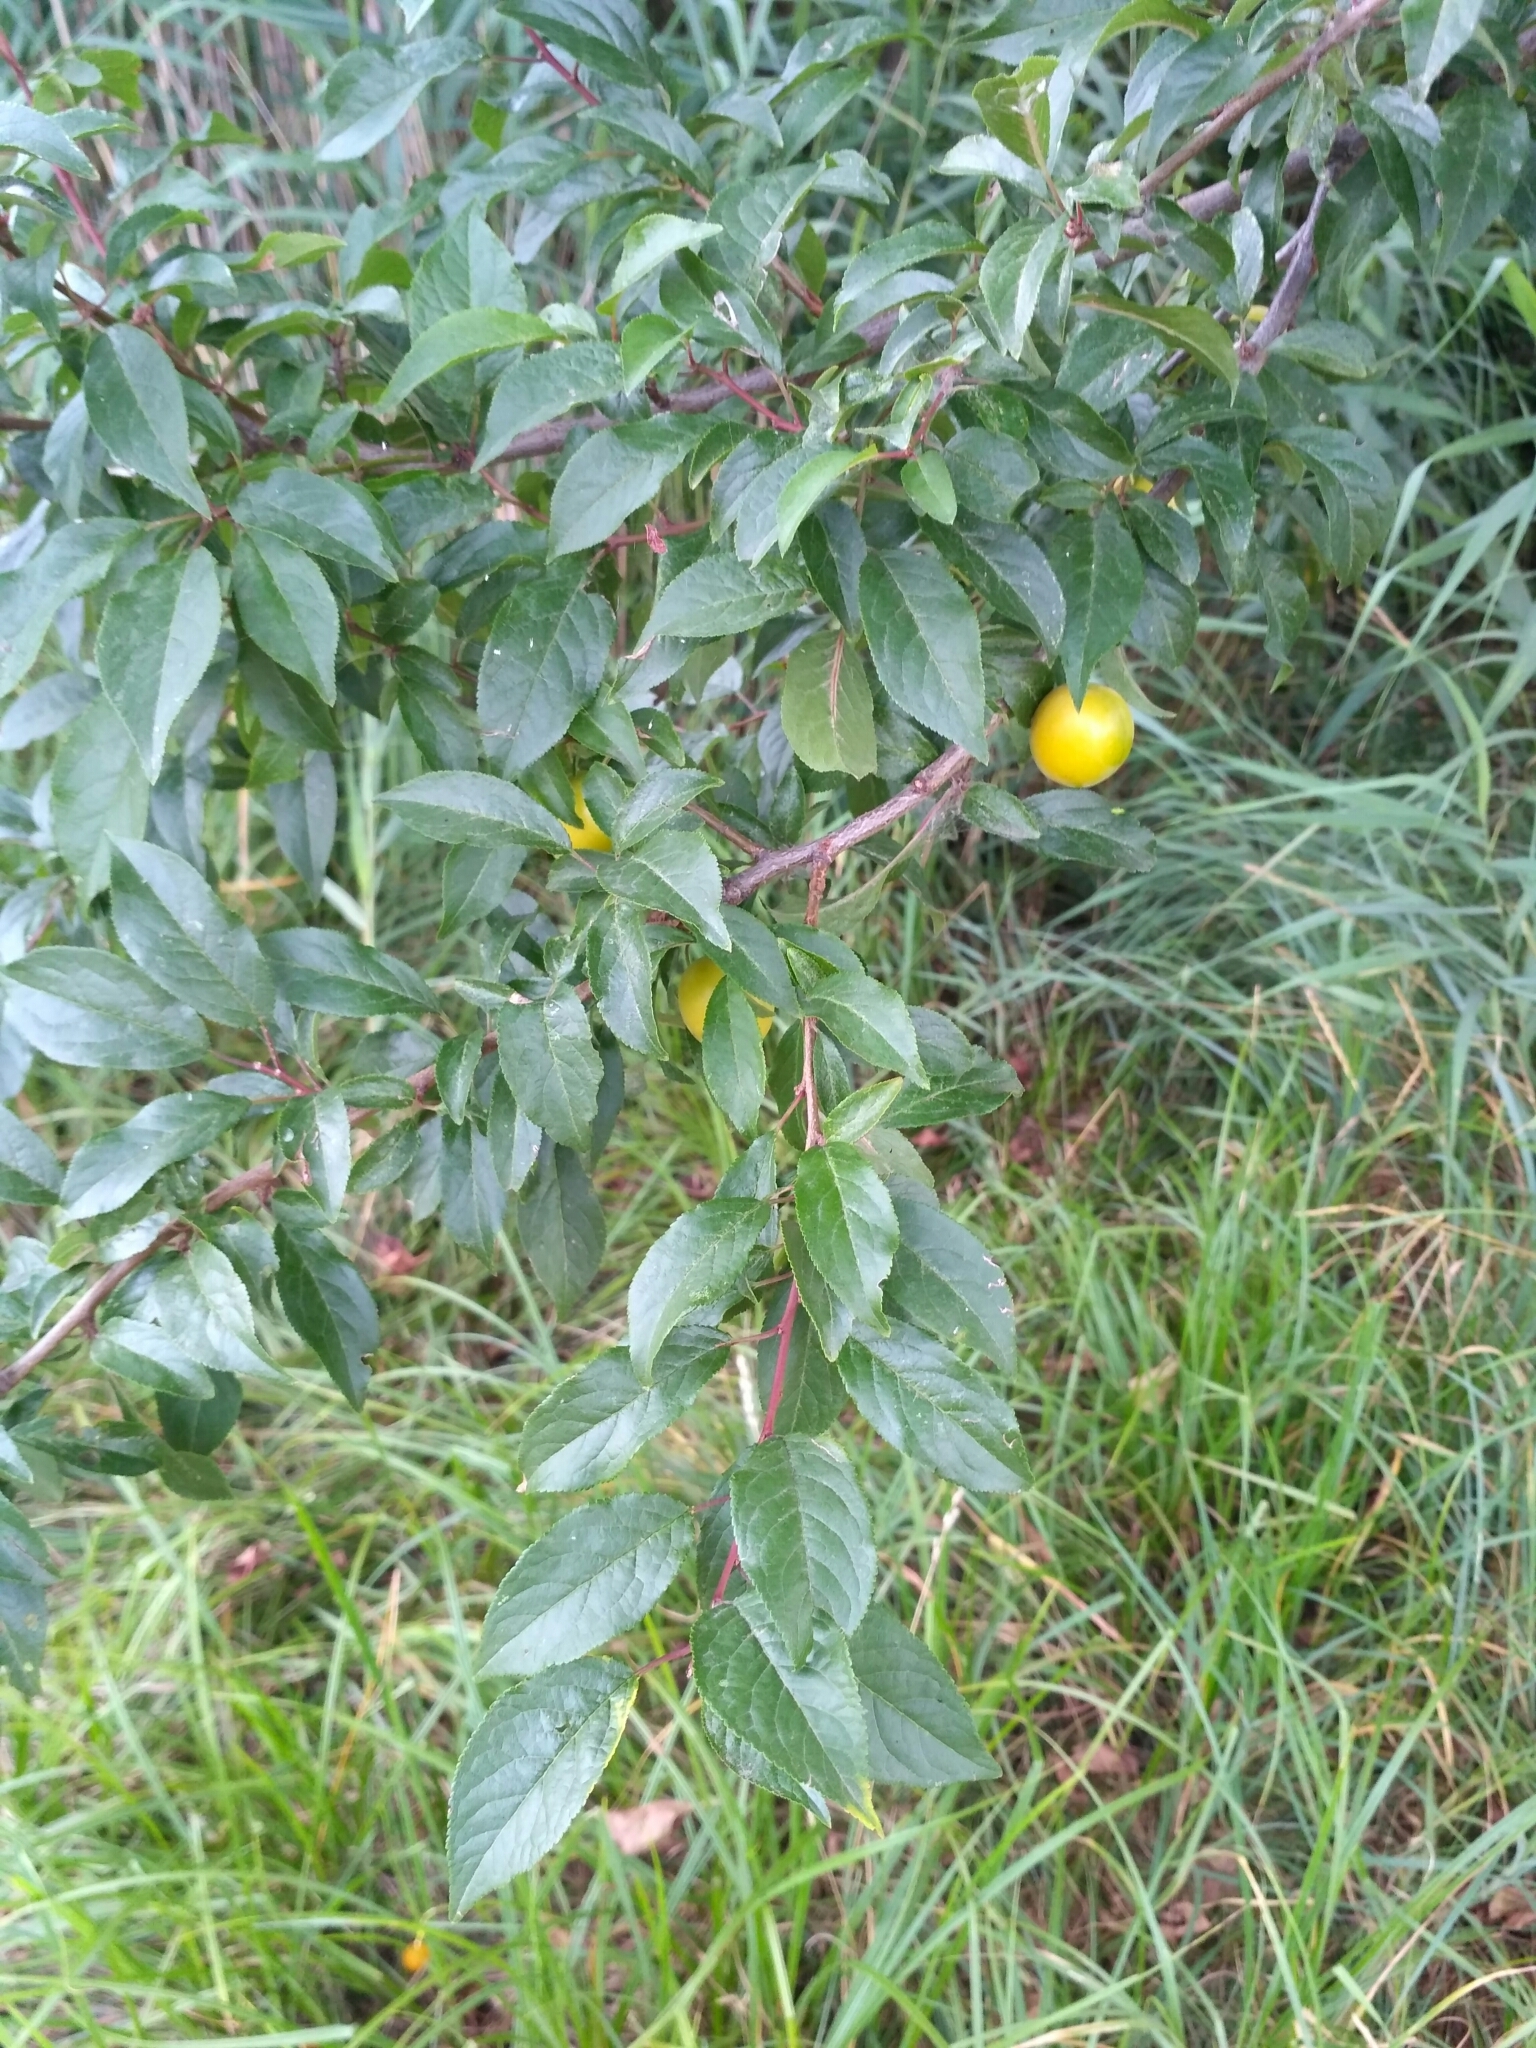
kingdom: Plantae
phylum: Tracheophyta
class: Magnoliopsida
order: Rosales
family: Rosaceae
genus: Prunus
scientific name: Prunus cerasifera
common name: Cherry plum
